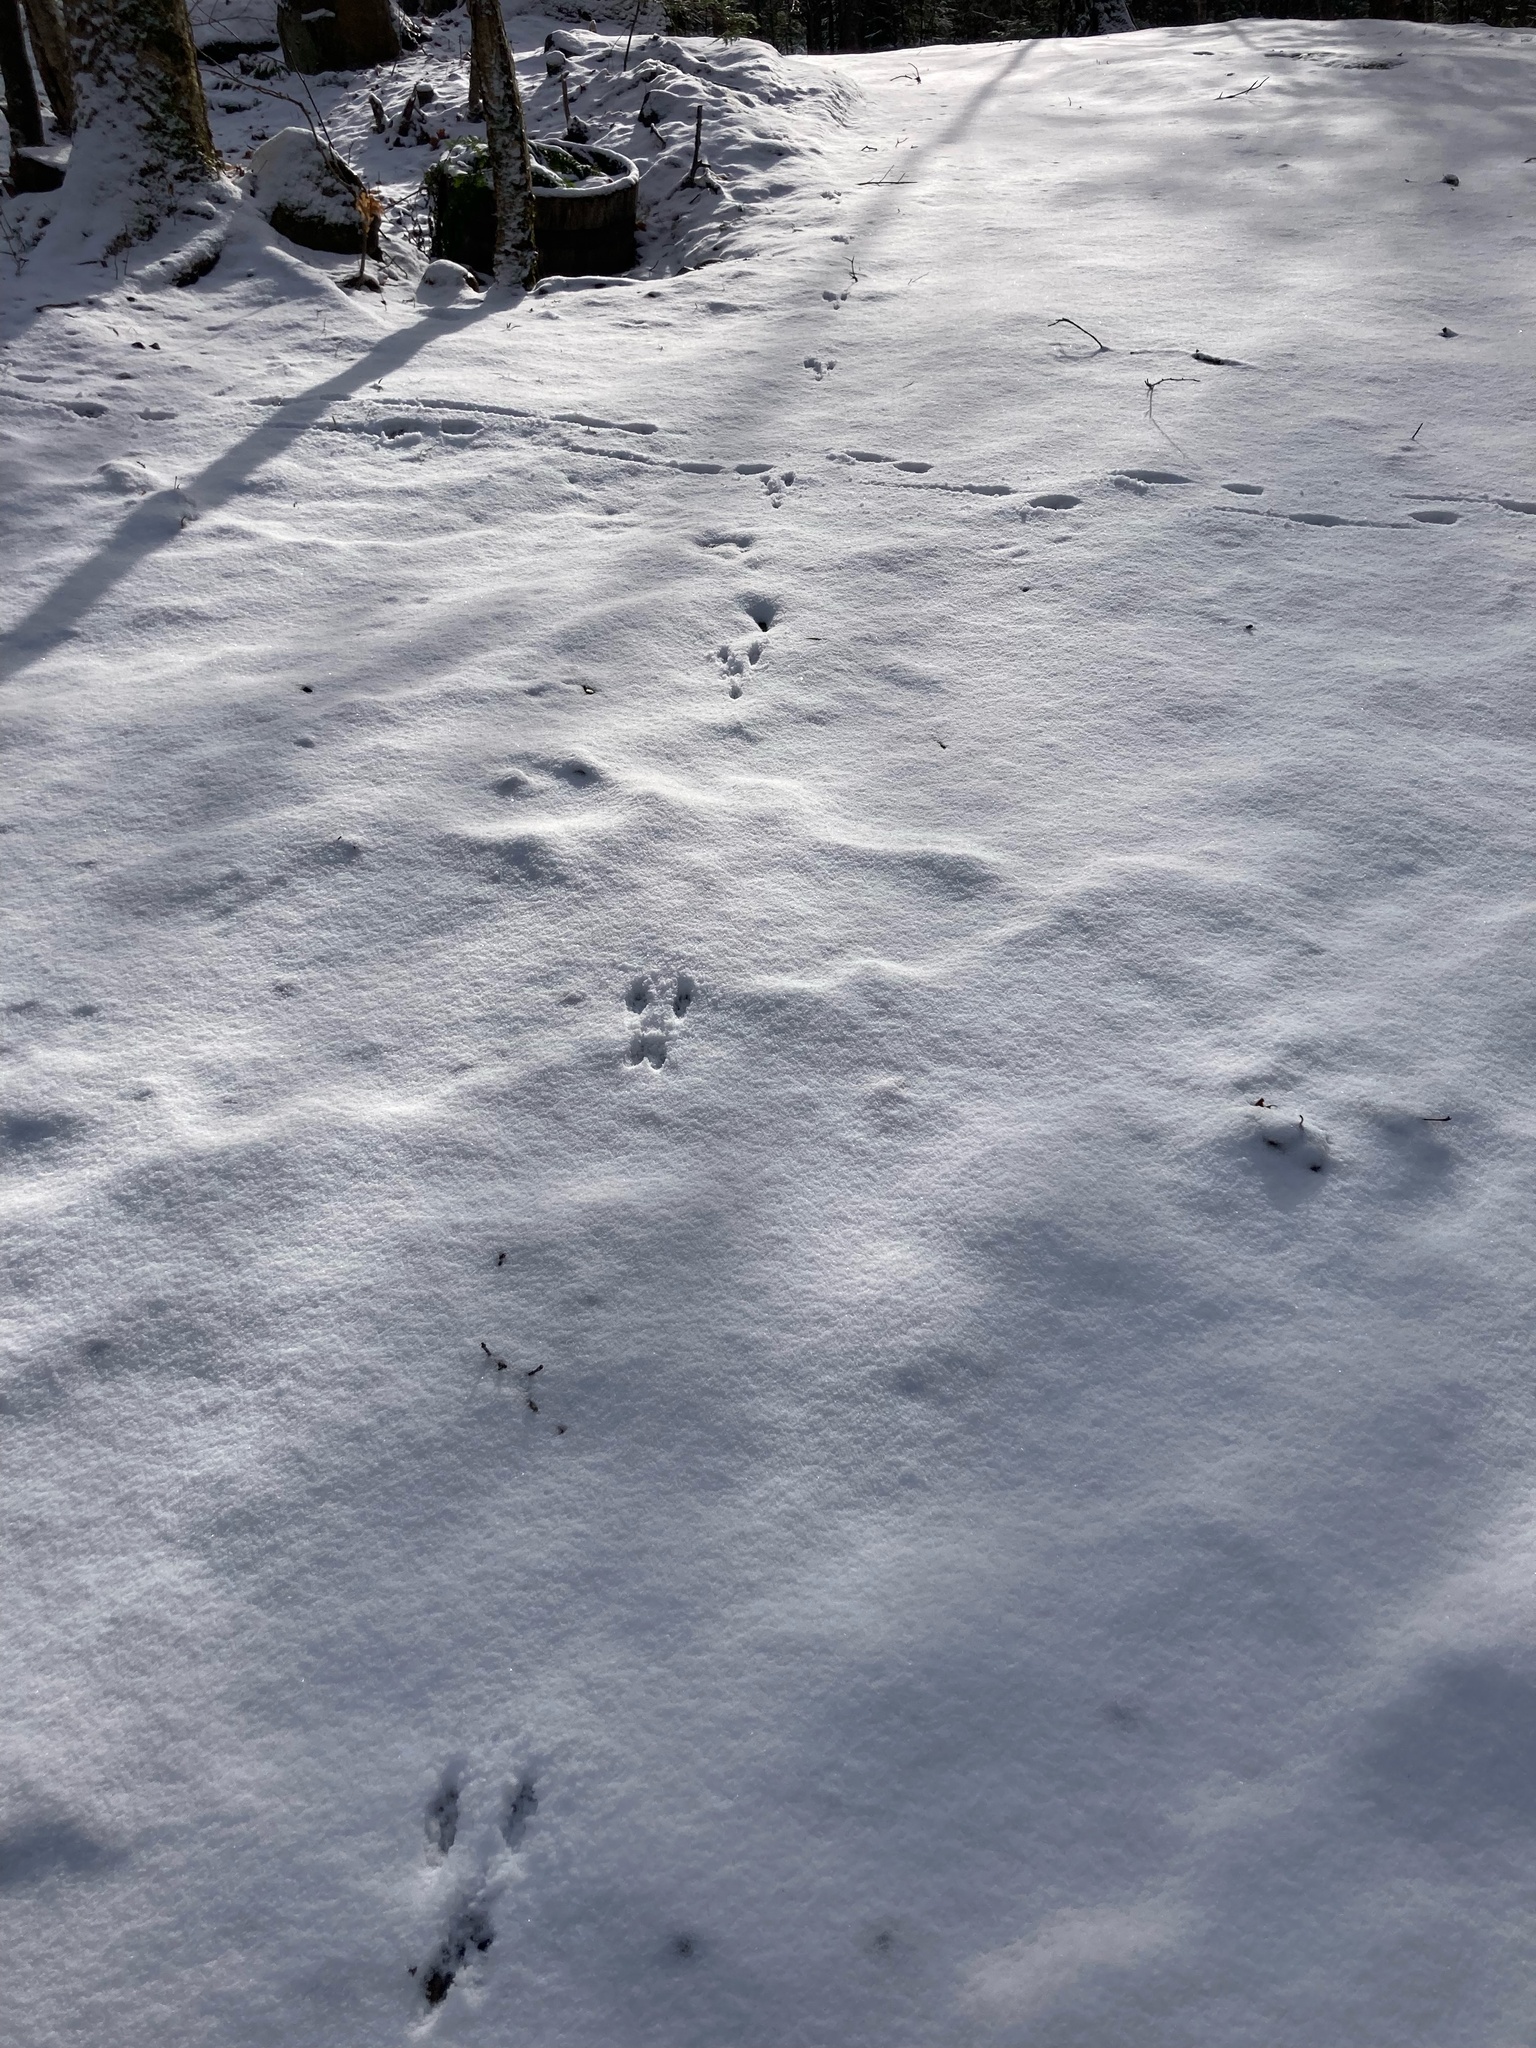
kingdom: Animalia
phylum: Chordata
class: Mammalia
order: Rodentia
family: Sciuridae
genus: Tamiasciurus
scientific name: Tamiasciurus hudsonicus
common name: Red squirrel
